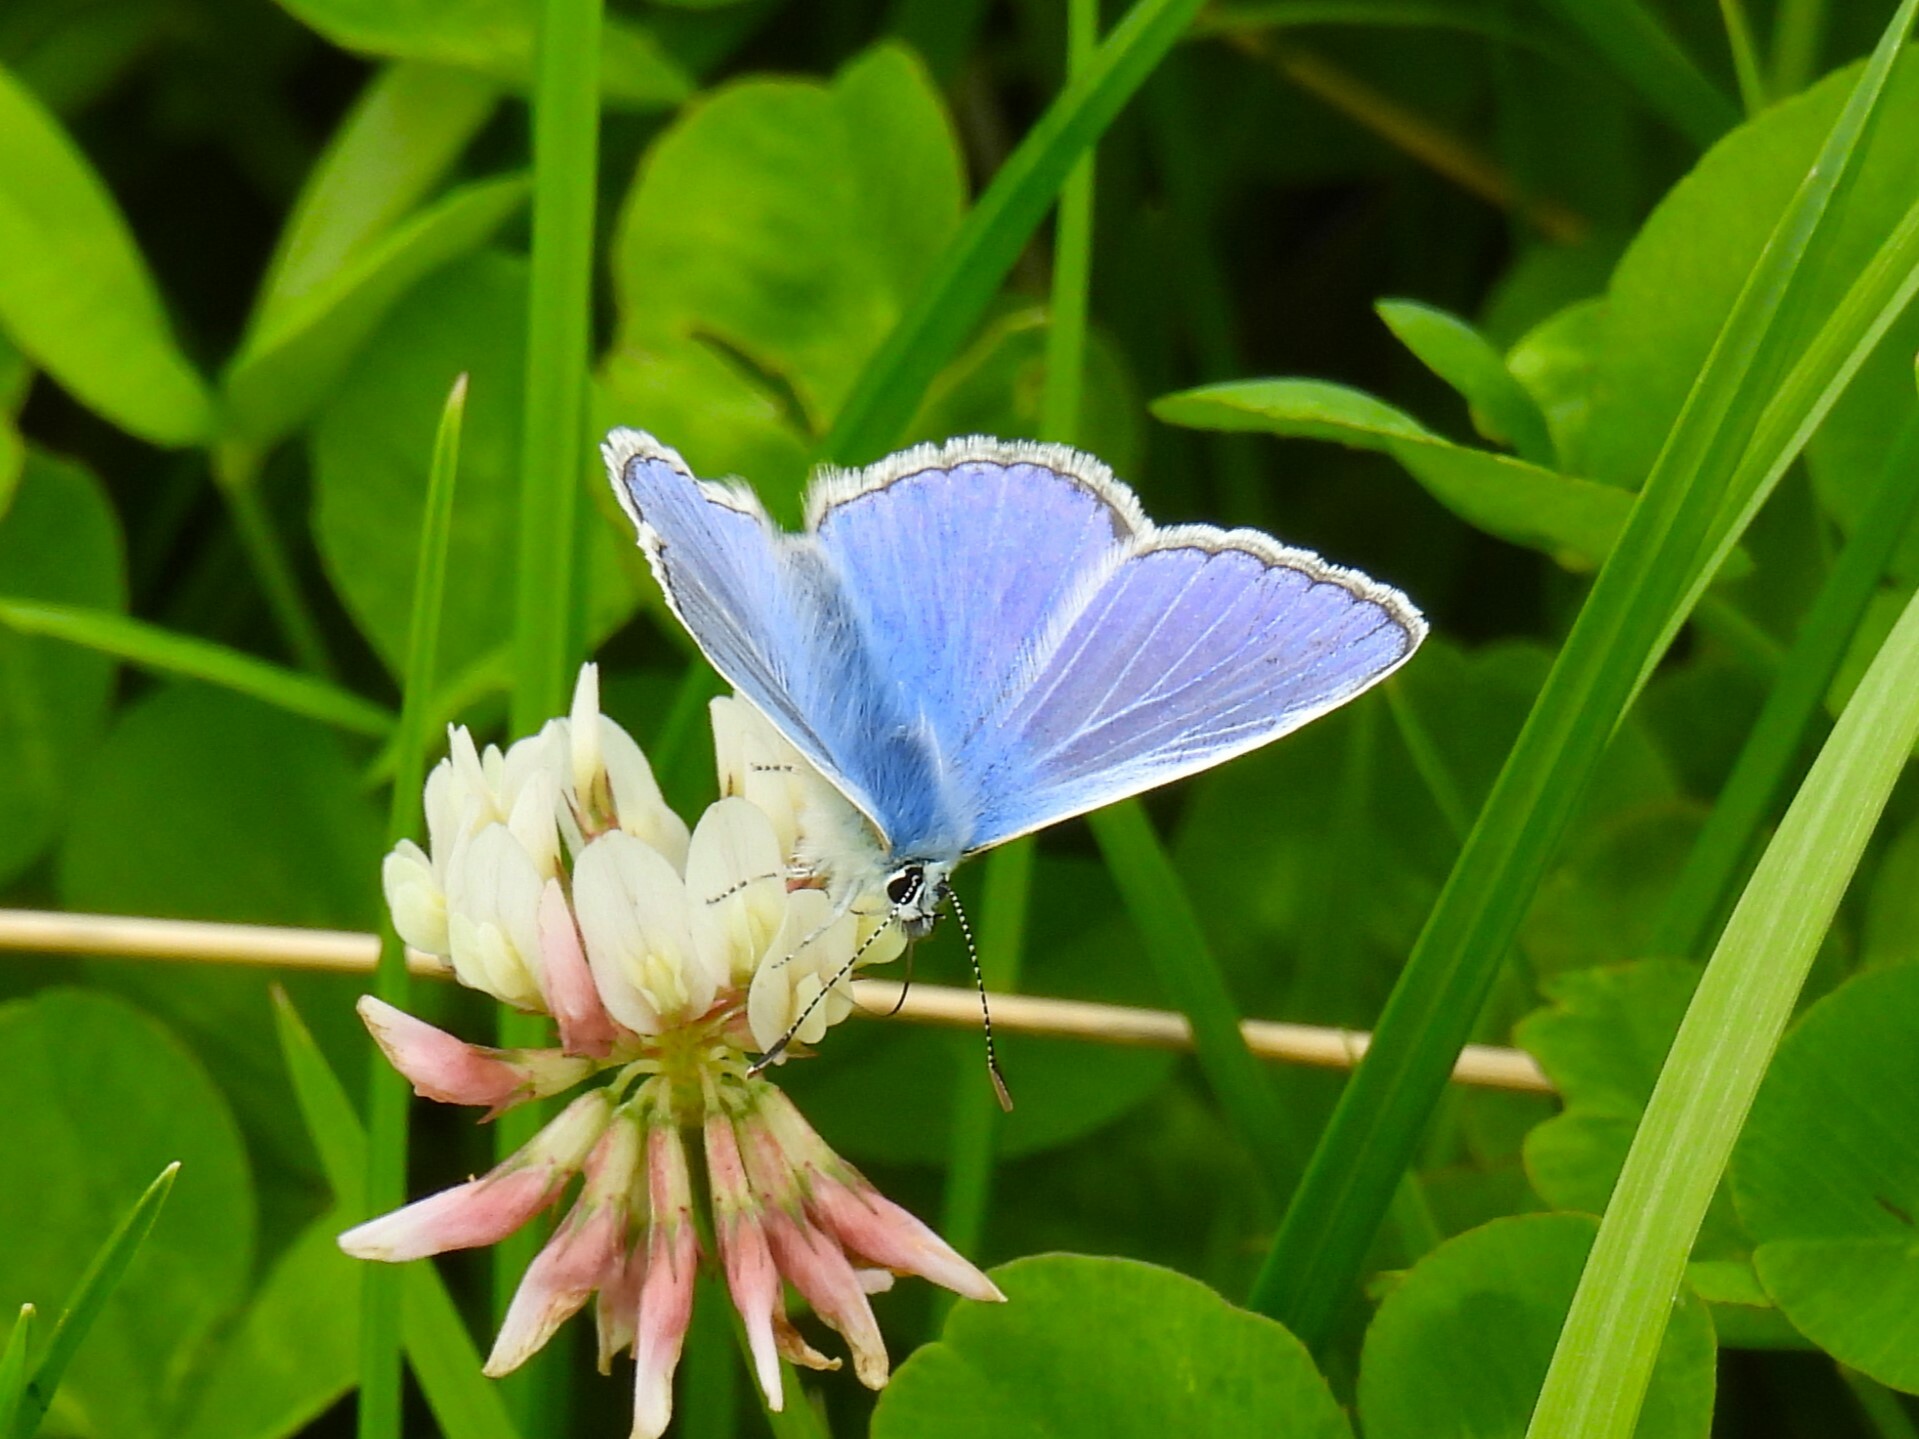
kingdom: Animalia
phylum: Arthropoda
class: Insecta
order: Lepidoptera
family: Lycaenidae
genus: Polyommatus
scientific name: Polyommatus icarus
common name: Common blue
